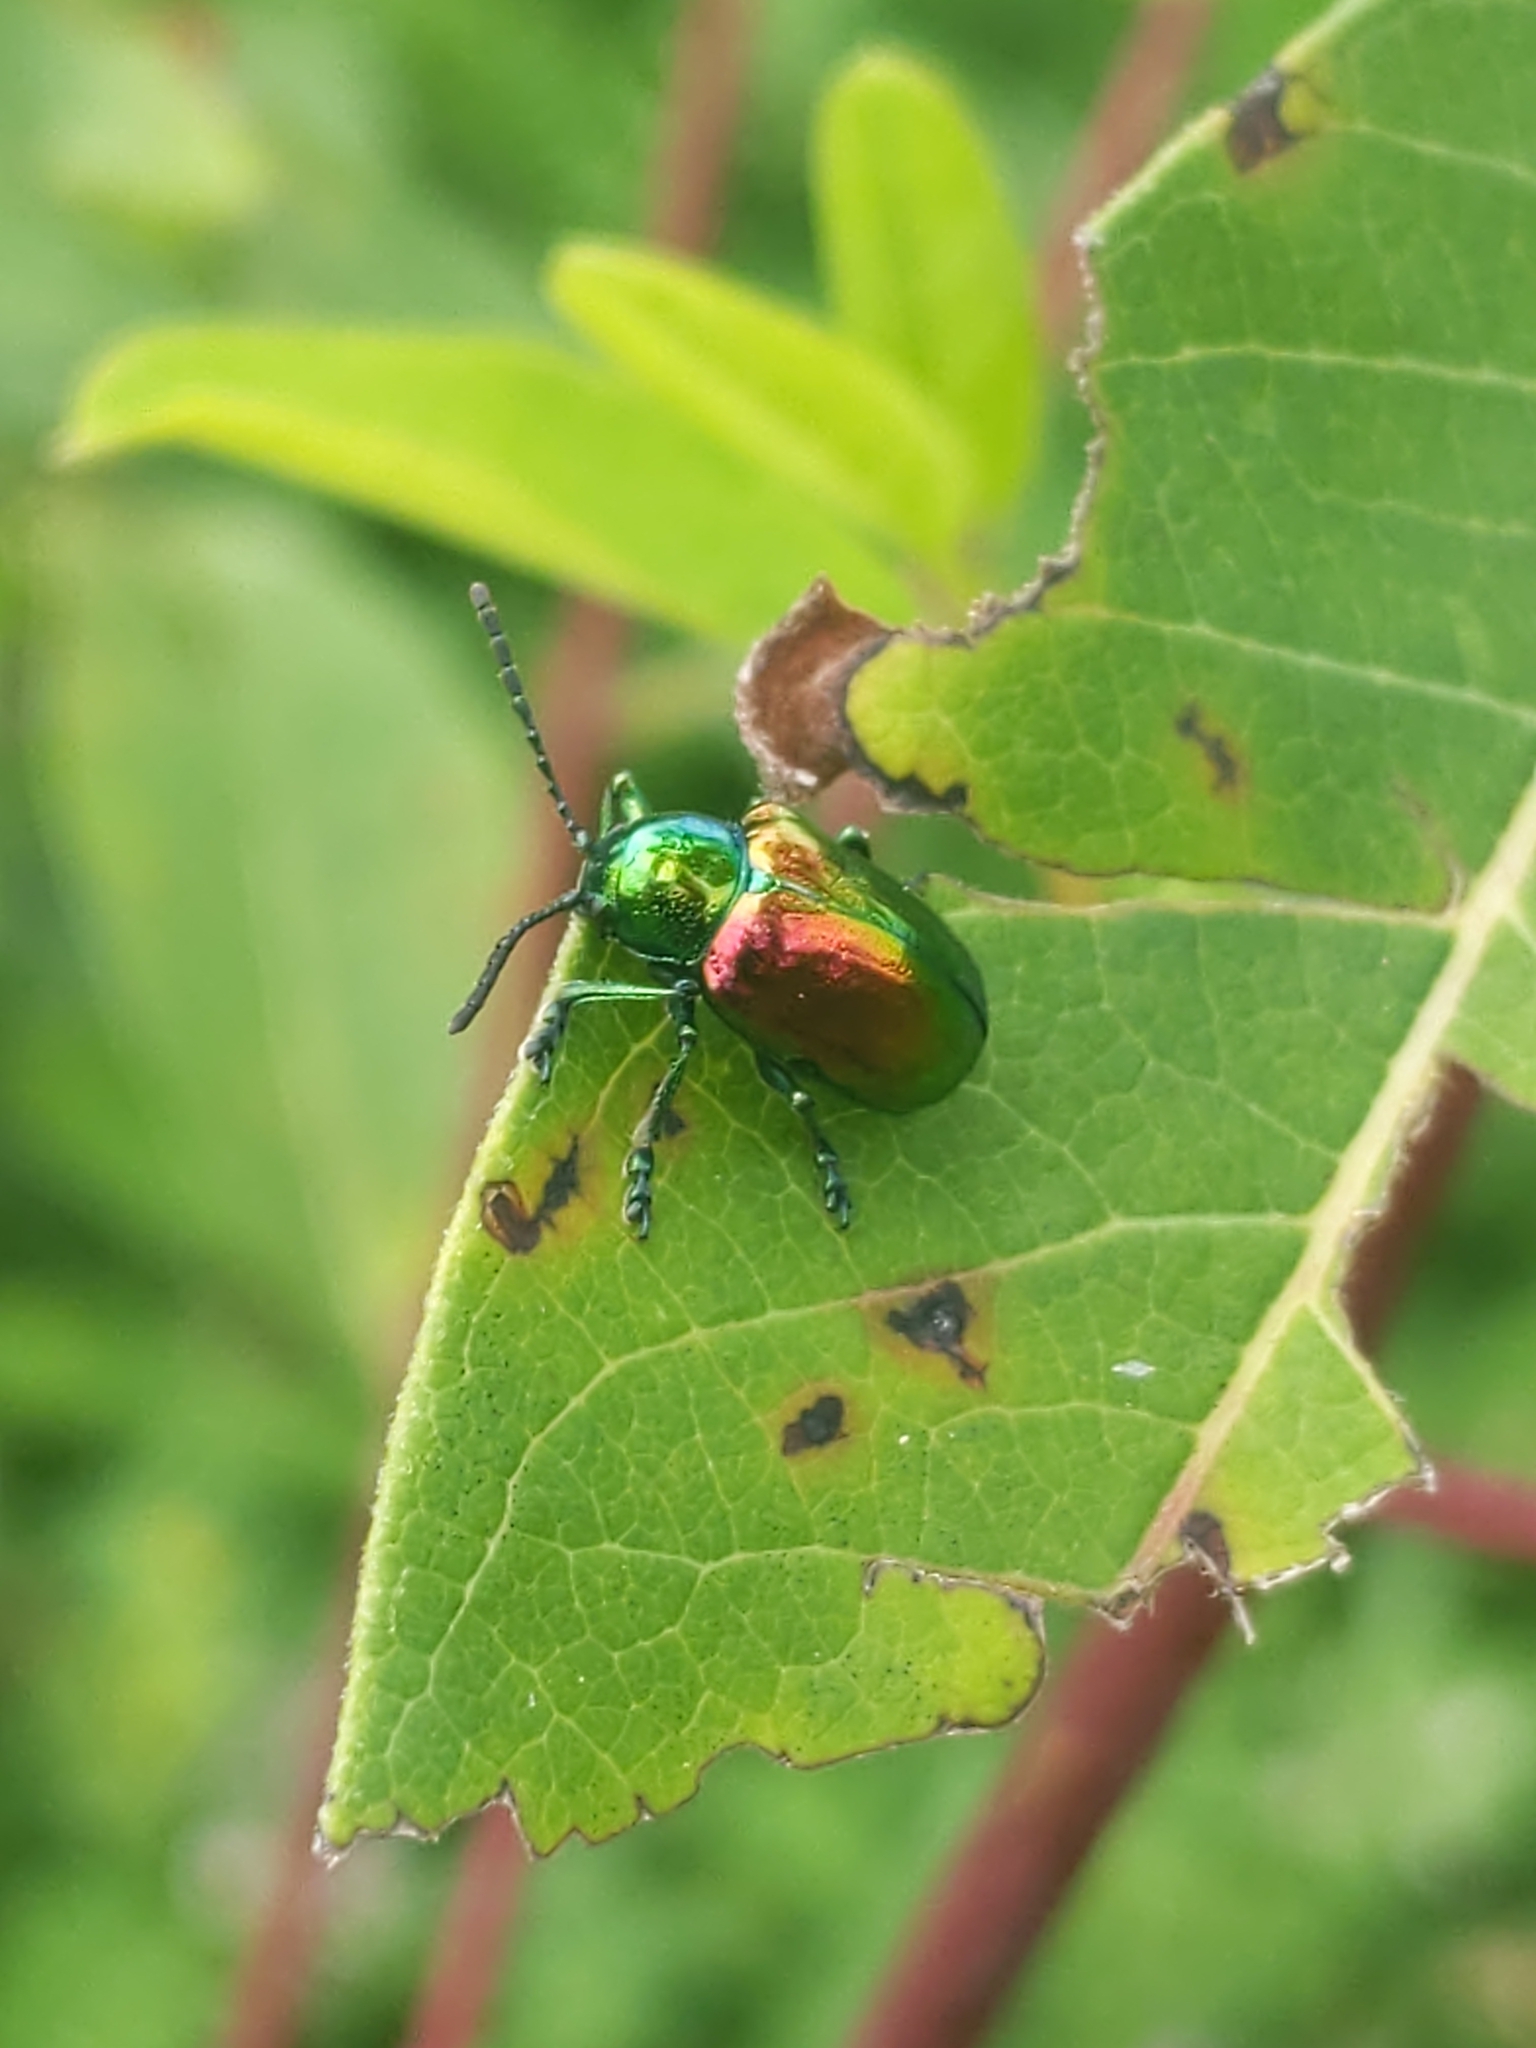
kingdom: Animalia
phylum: Arthropoda
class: Insecta
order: Coleoptera
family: Chrysomelidae
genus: Chrysochus
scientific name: Chrysochus auratus
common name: Dogbane leaf beetle
